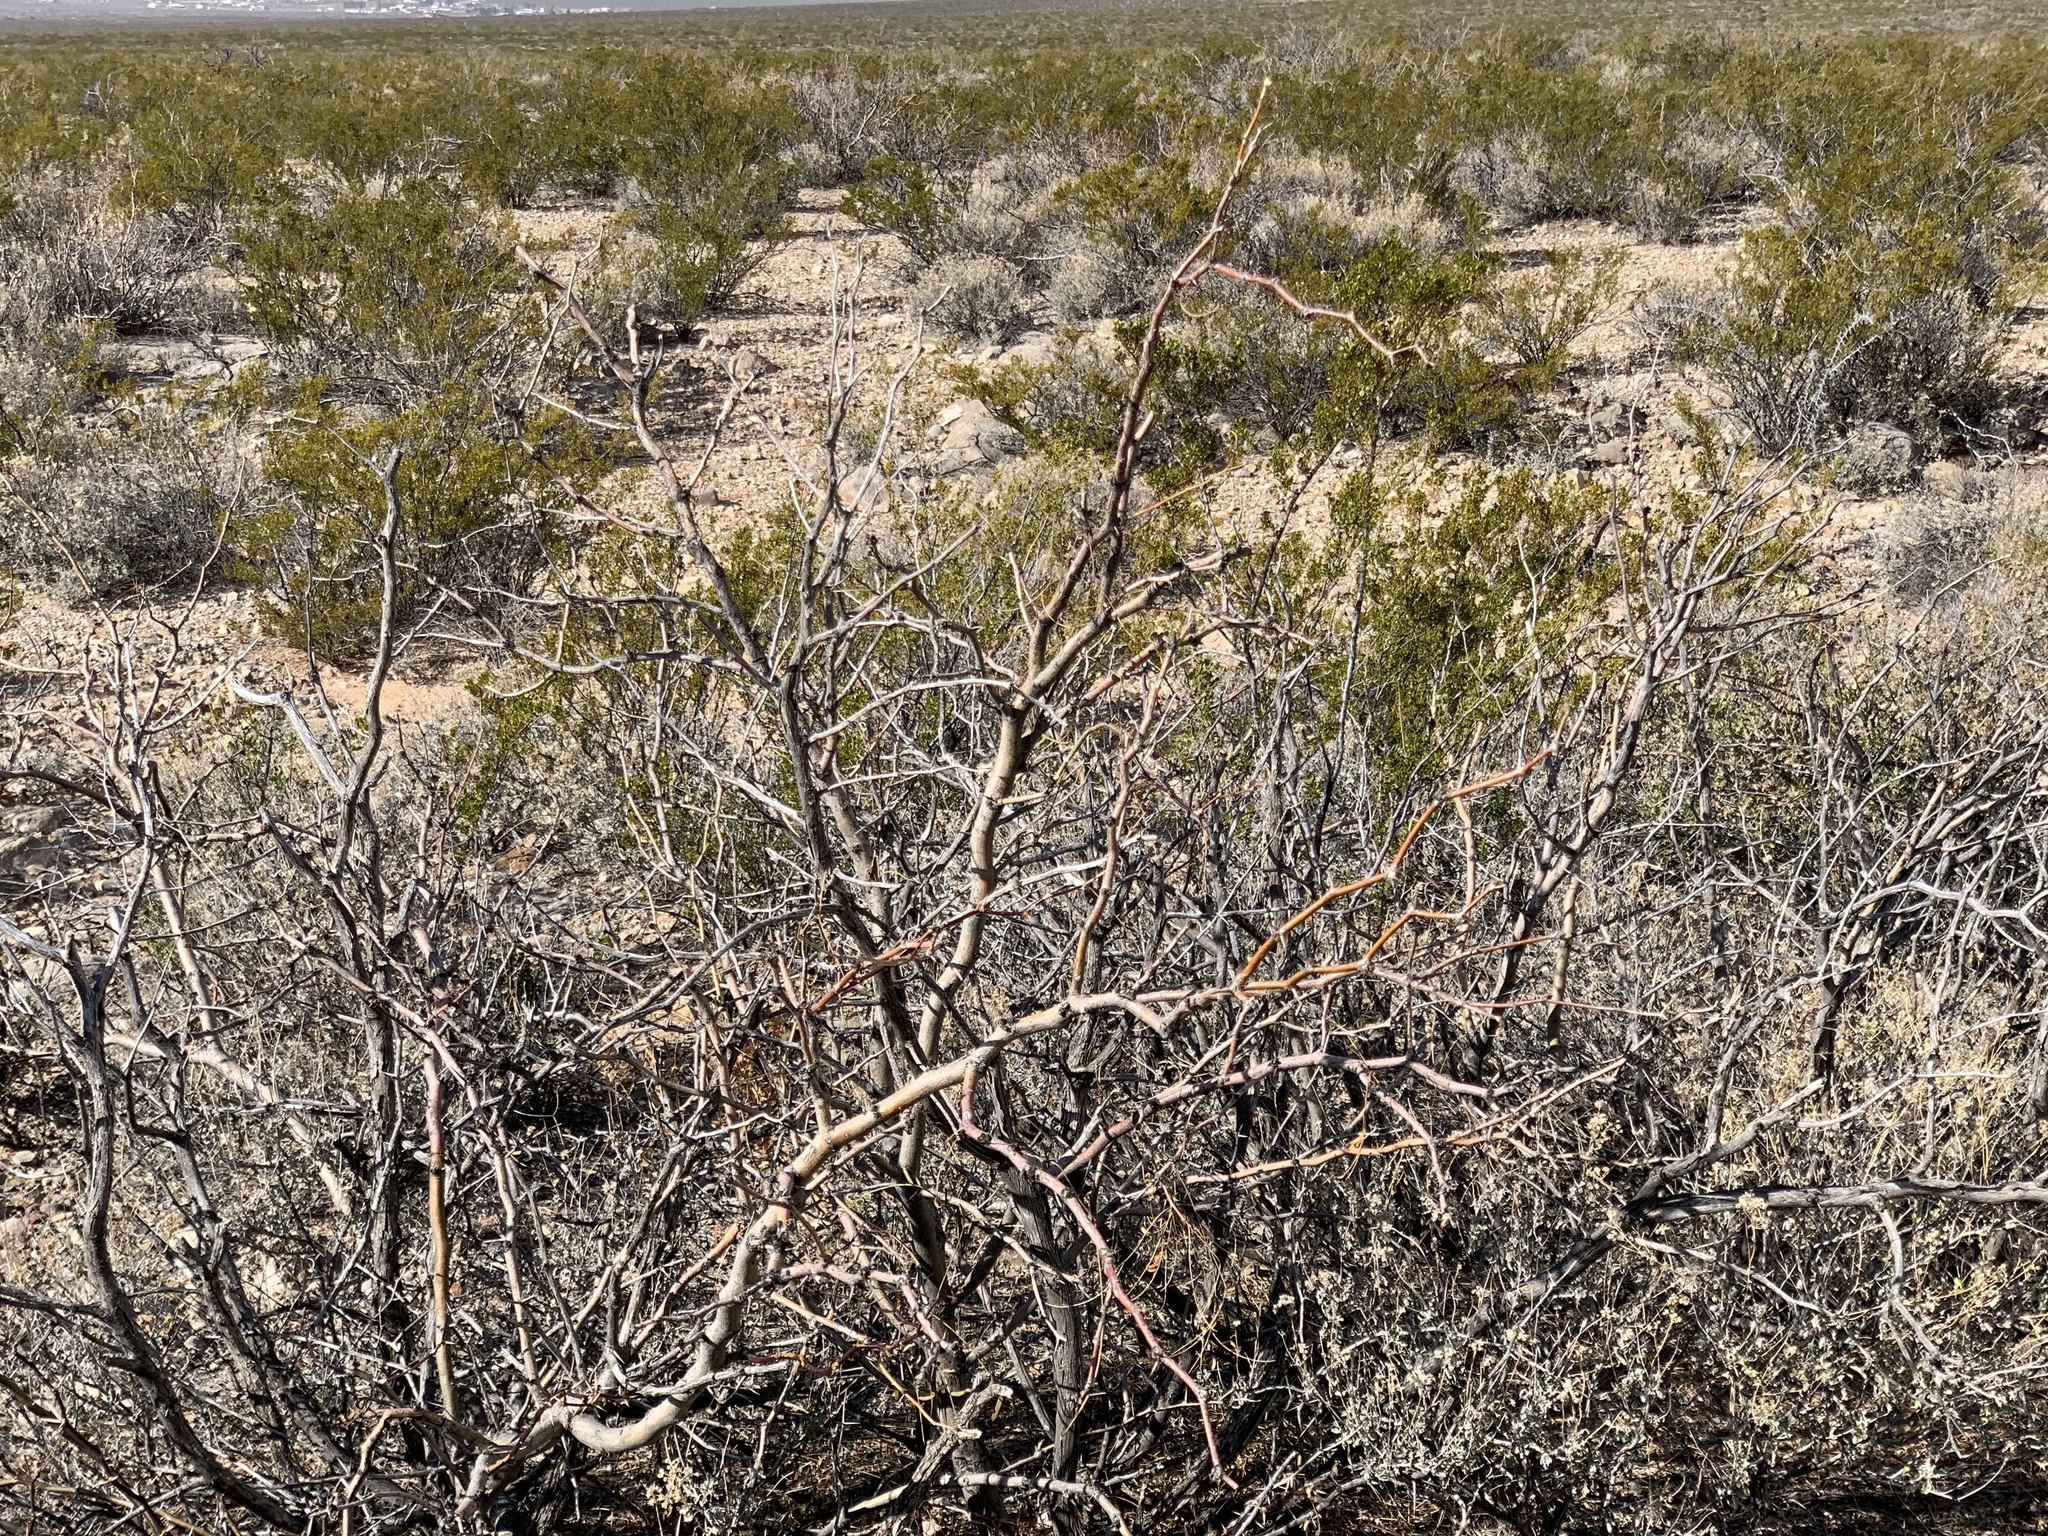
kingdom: Plantae
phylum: Tracheophyta
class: Magnoliopsida
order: Fabales
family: Fabaceae
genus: Prosopis
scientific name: Prosopis glandulosa
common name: Honey mesquite
